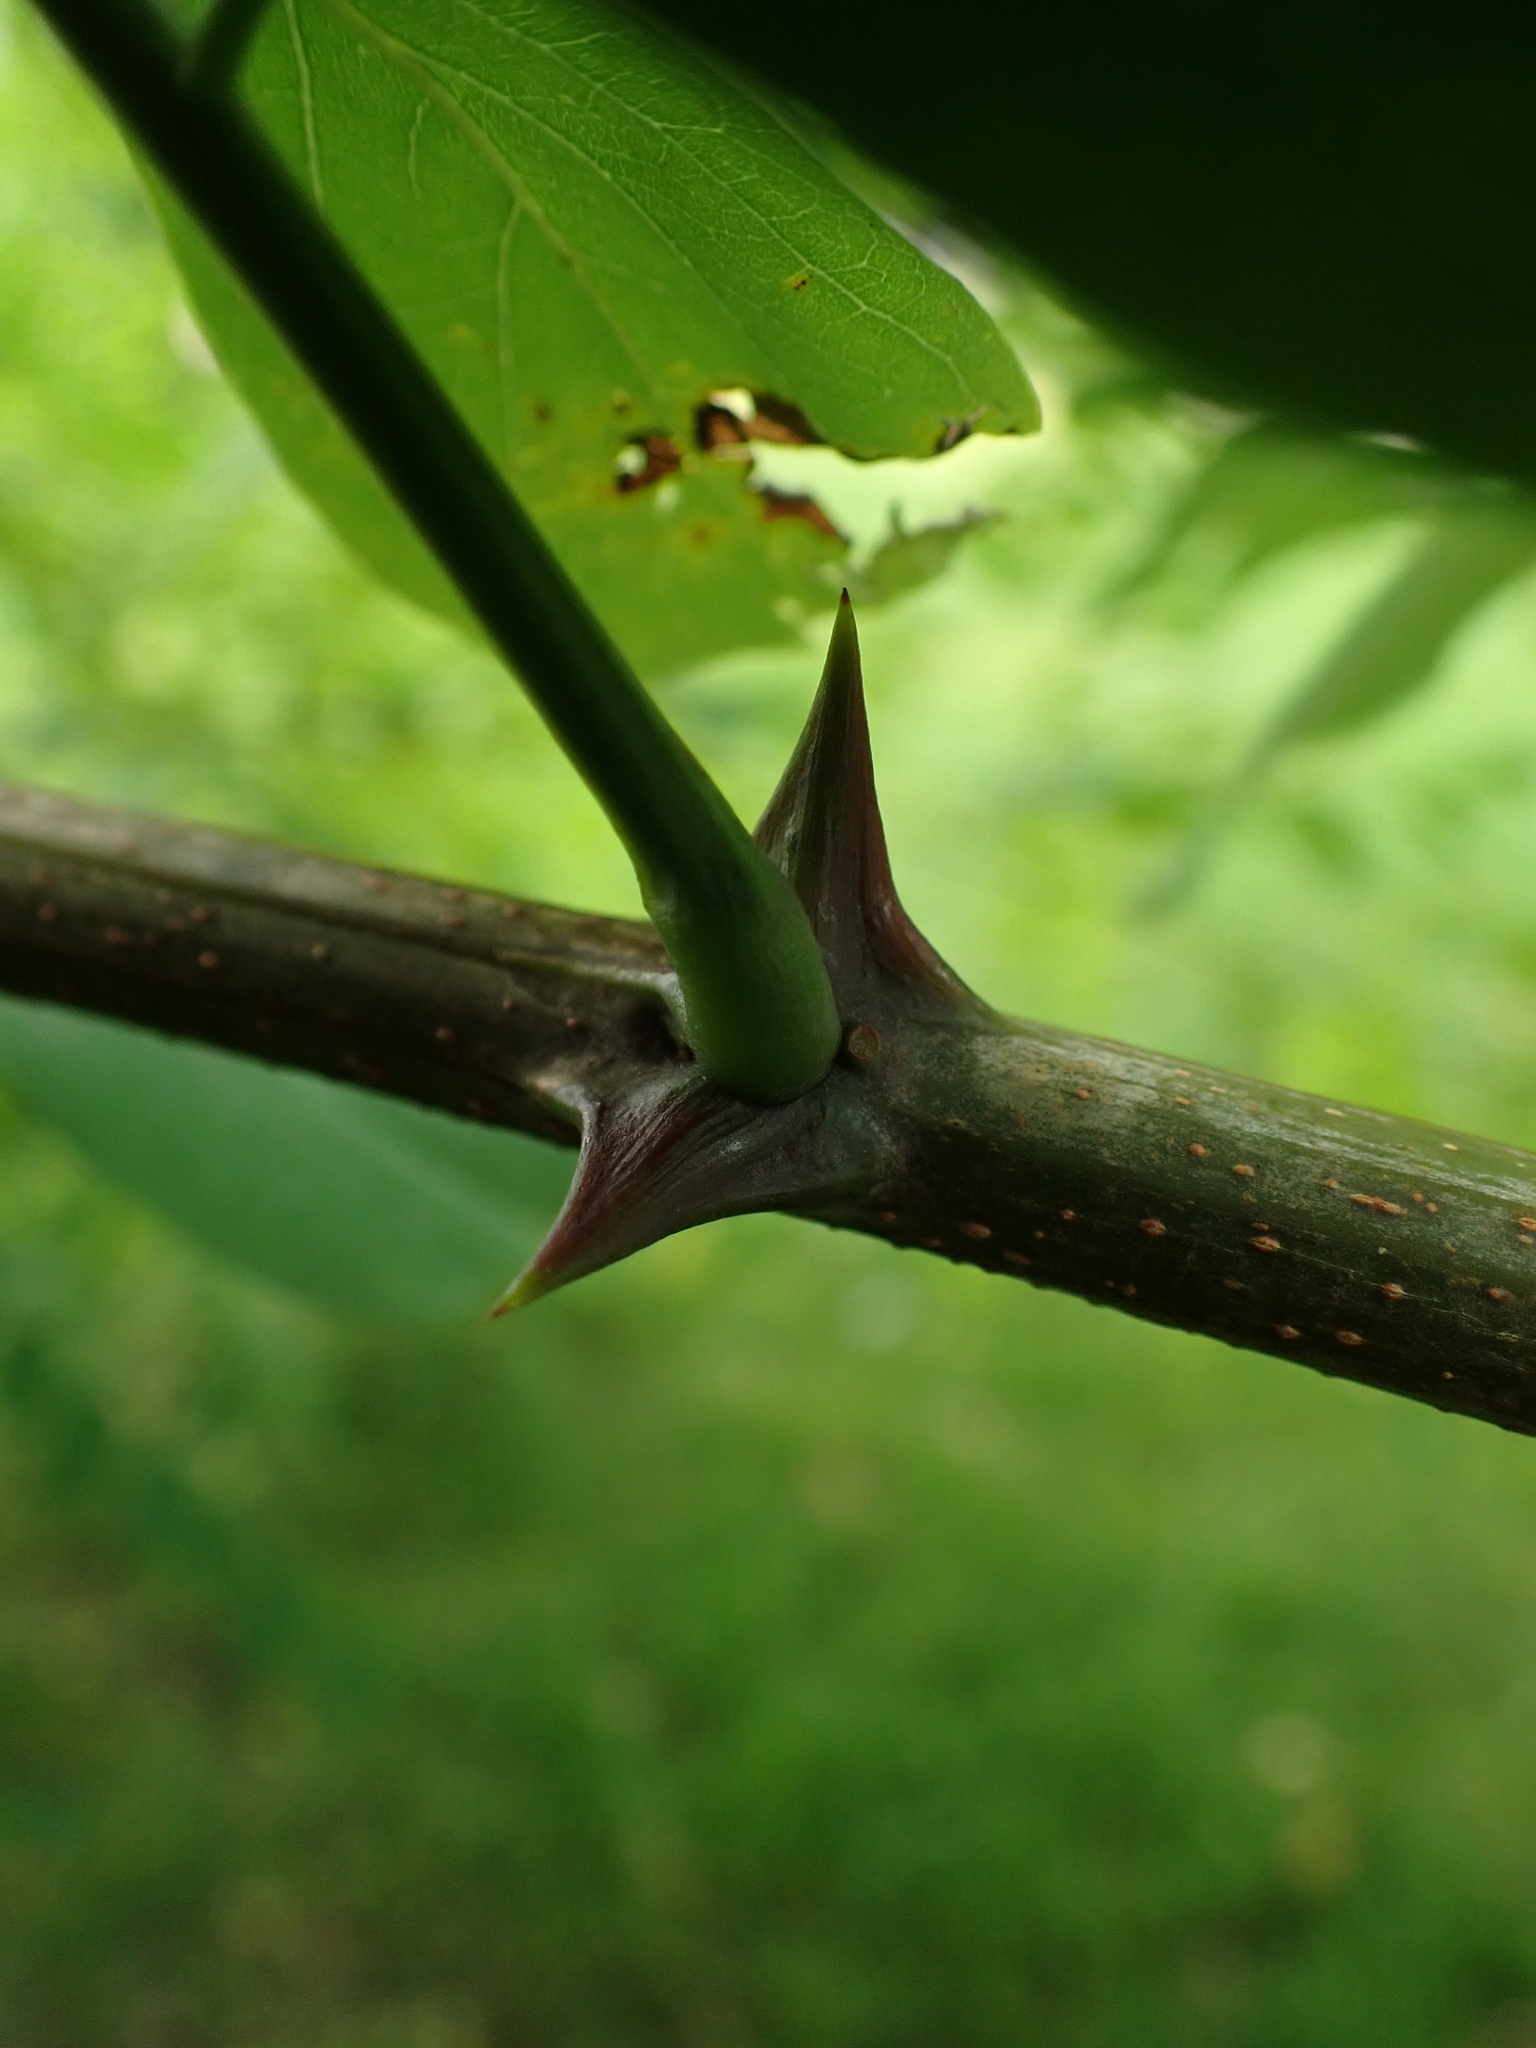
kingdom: Plantae
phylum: Tracheophyta
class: Magnoliopsida
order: Fabales
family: Fabaceae
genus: Robinia
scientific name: Robinia pseudoacacia
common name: Black locust
